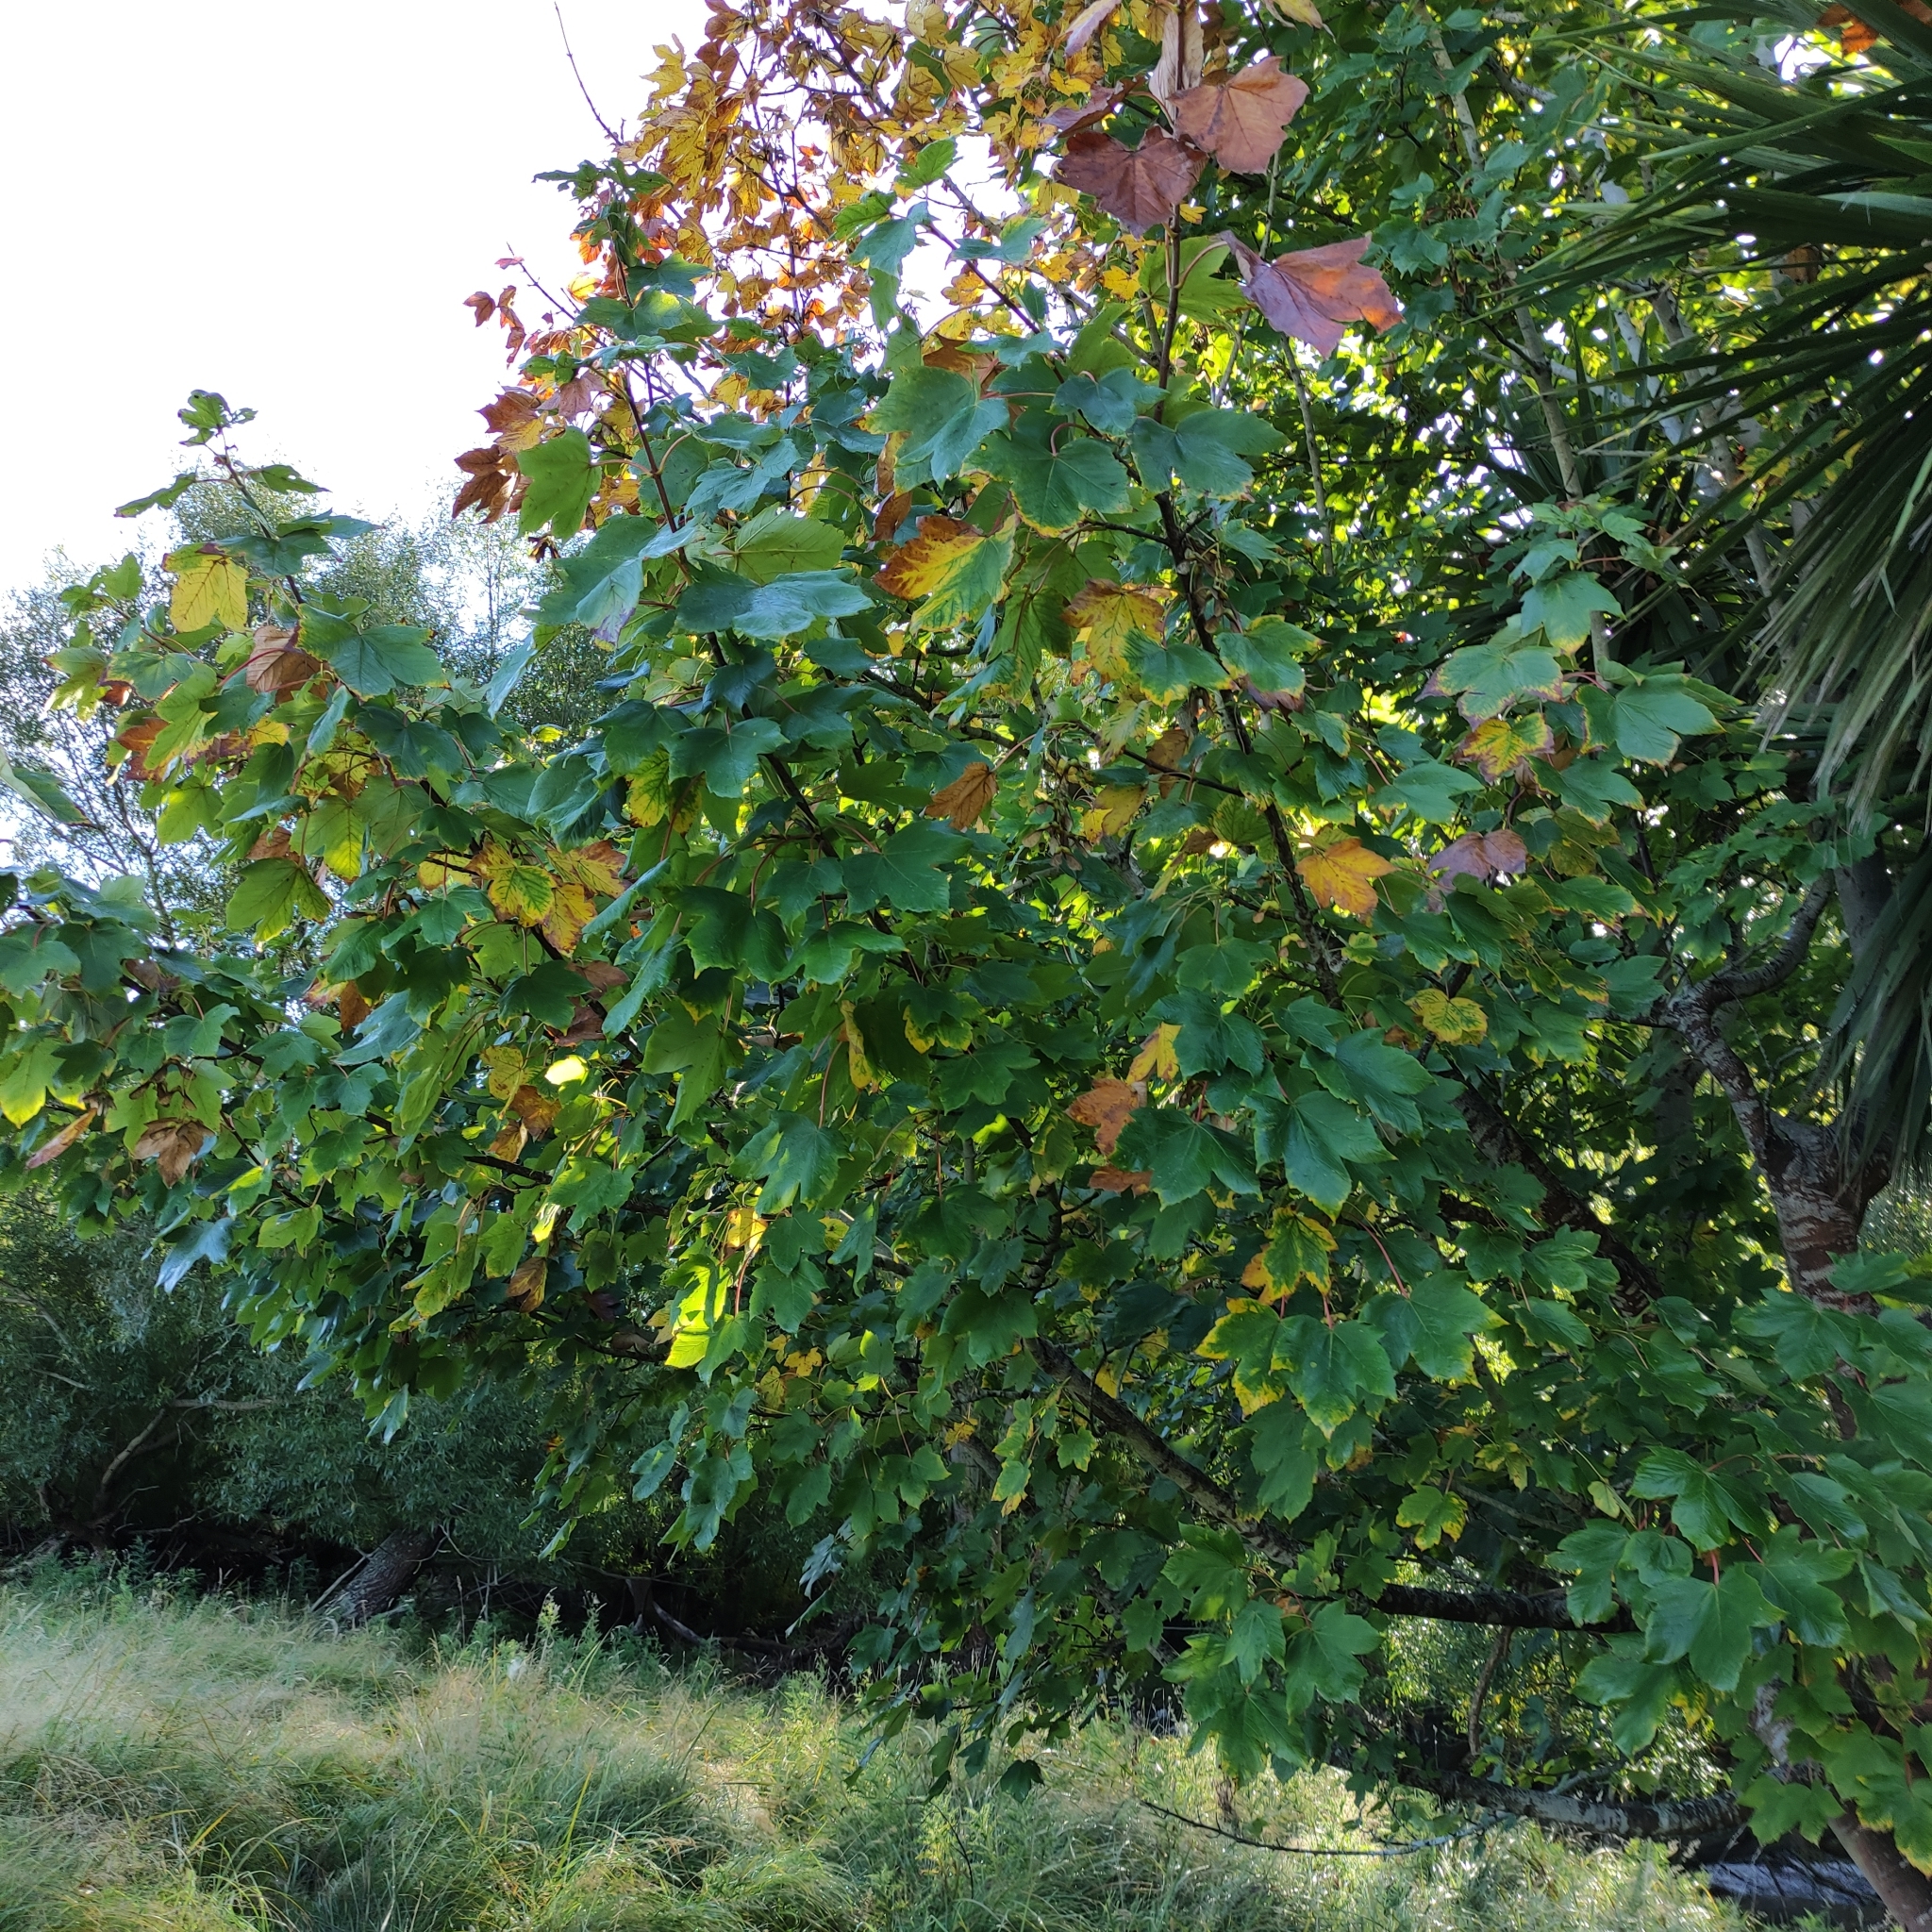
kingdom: Plantae
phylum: Tracheophyta
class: Magnoliopsida
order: Sapindales
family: Sapindaceae
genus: Acer
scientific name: Acer pseudoplatanus
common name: Sycamore
